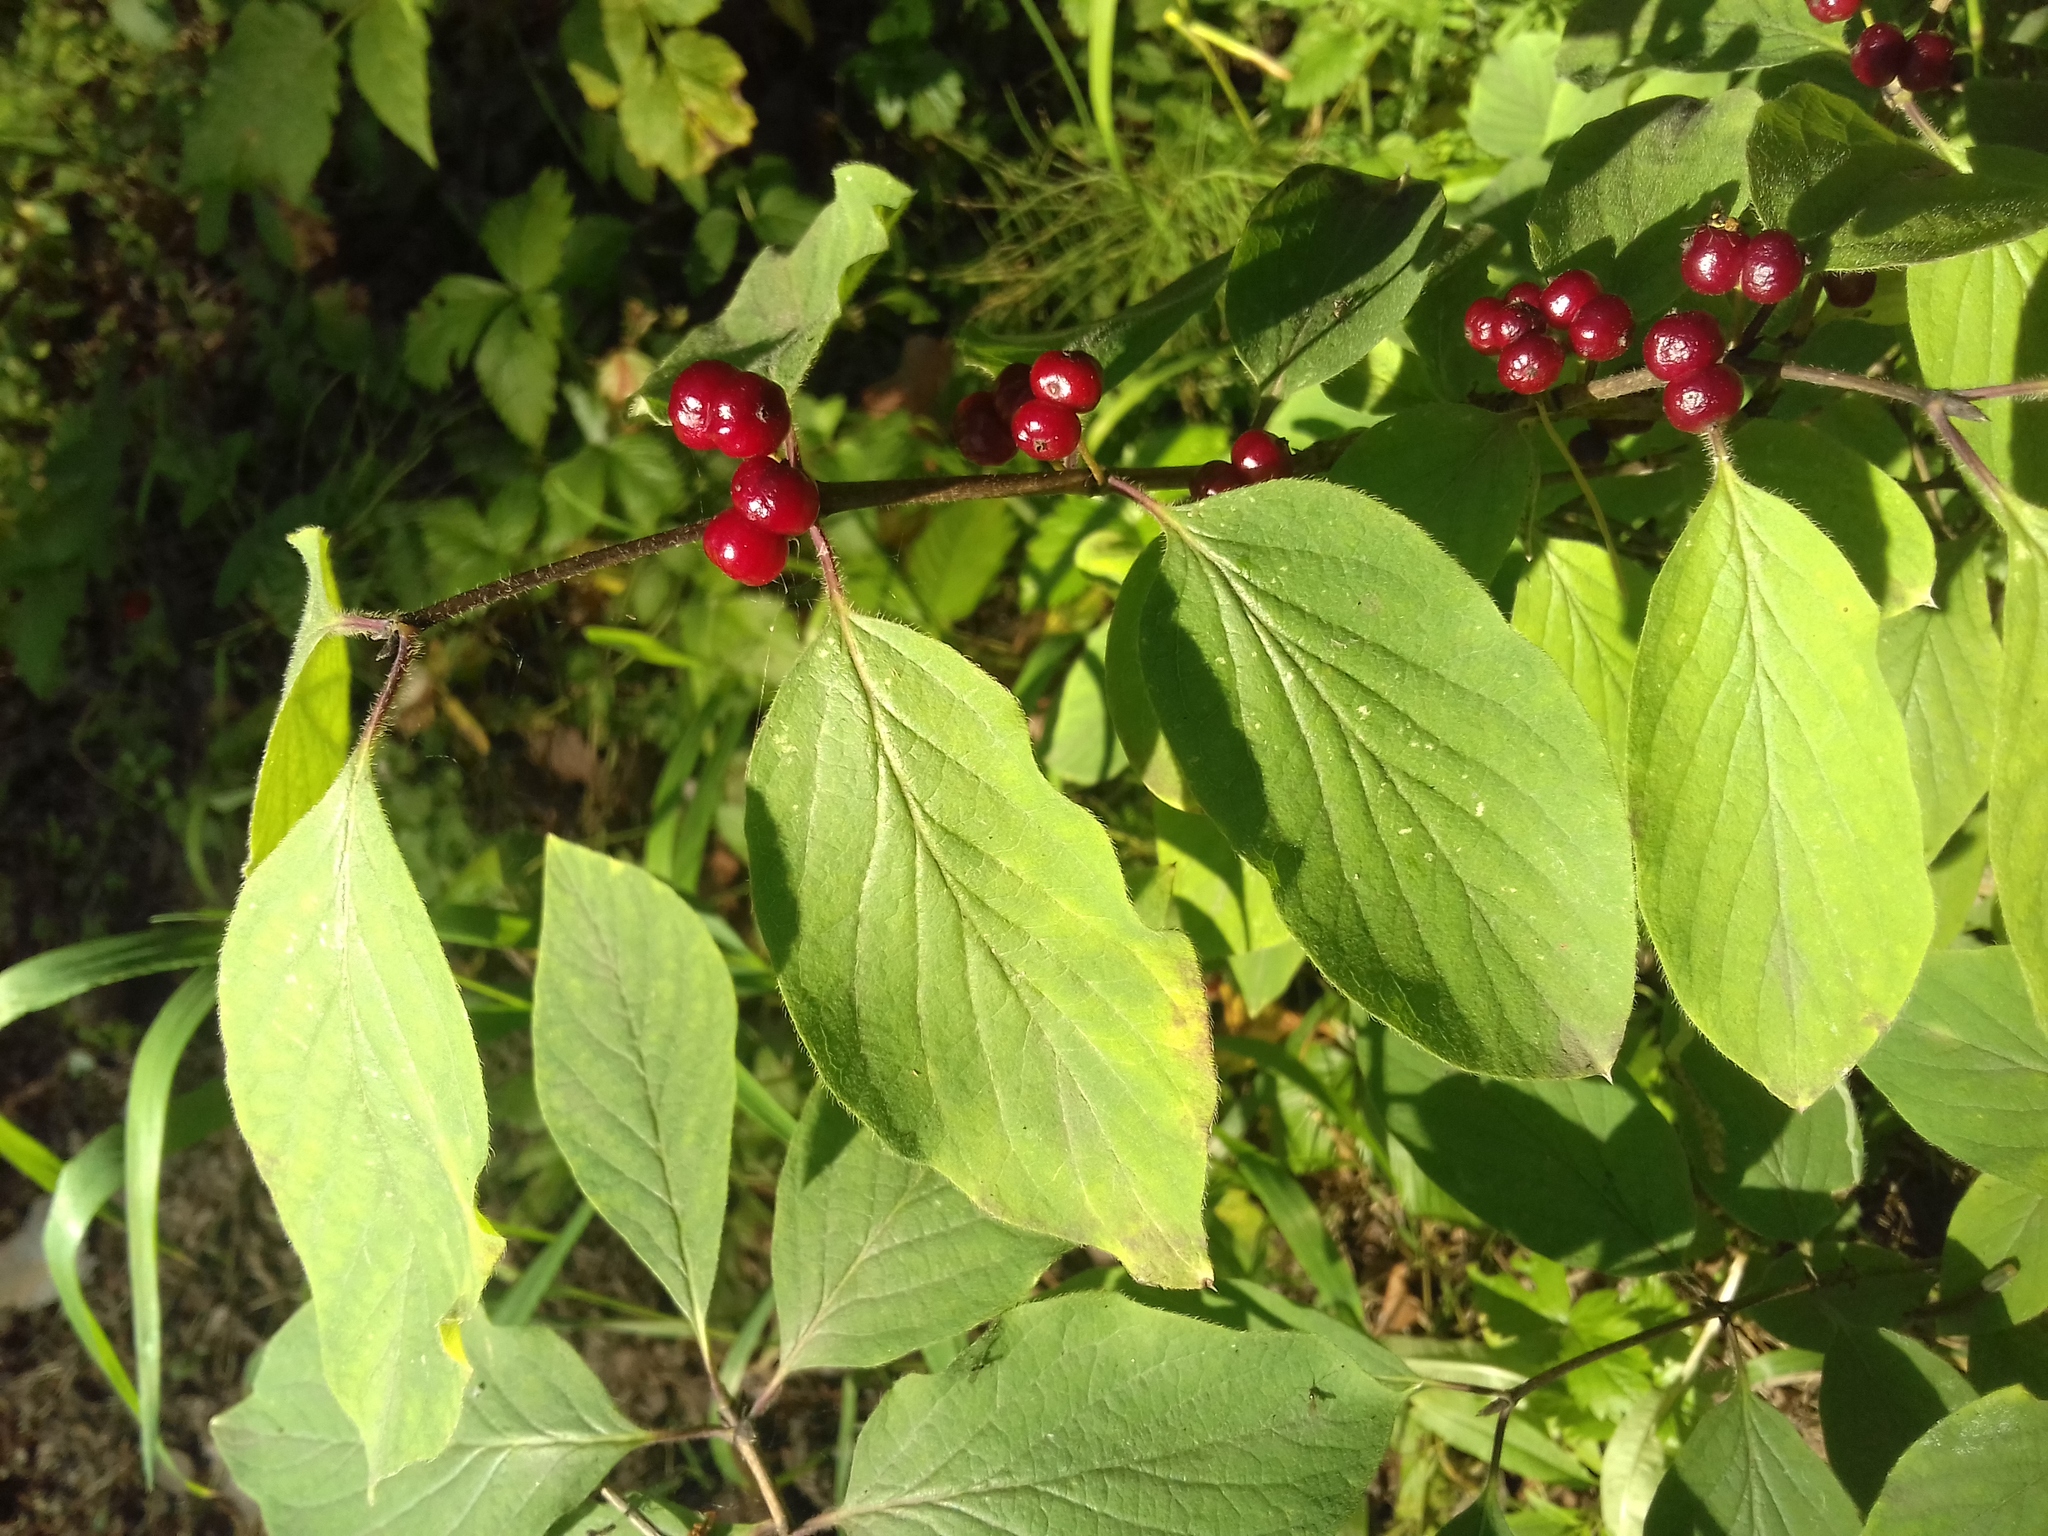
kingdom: Plantae
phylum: Tracheophyta
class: Magnoliopsida
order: Dipsacales
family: Caprifoliaceae
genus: Lonicera
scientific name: Lonicera xylosteum
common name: Fly honeysuckle
